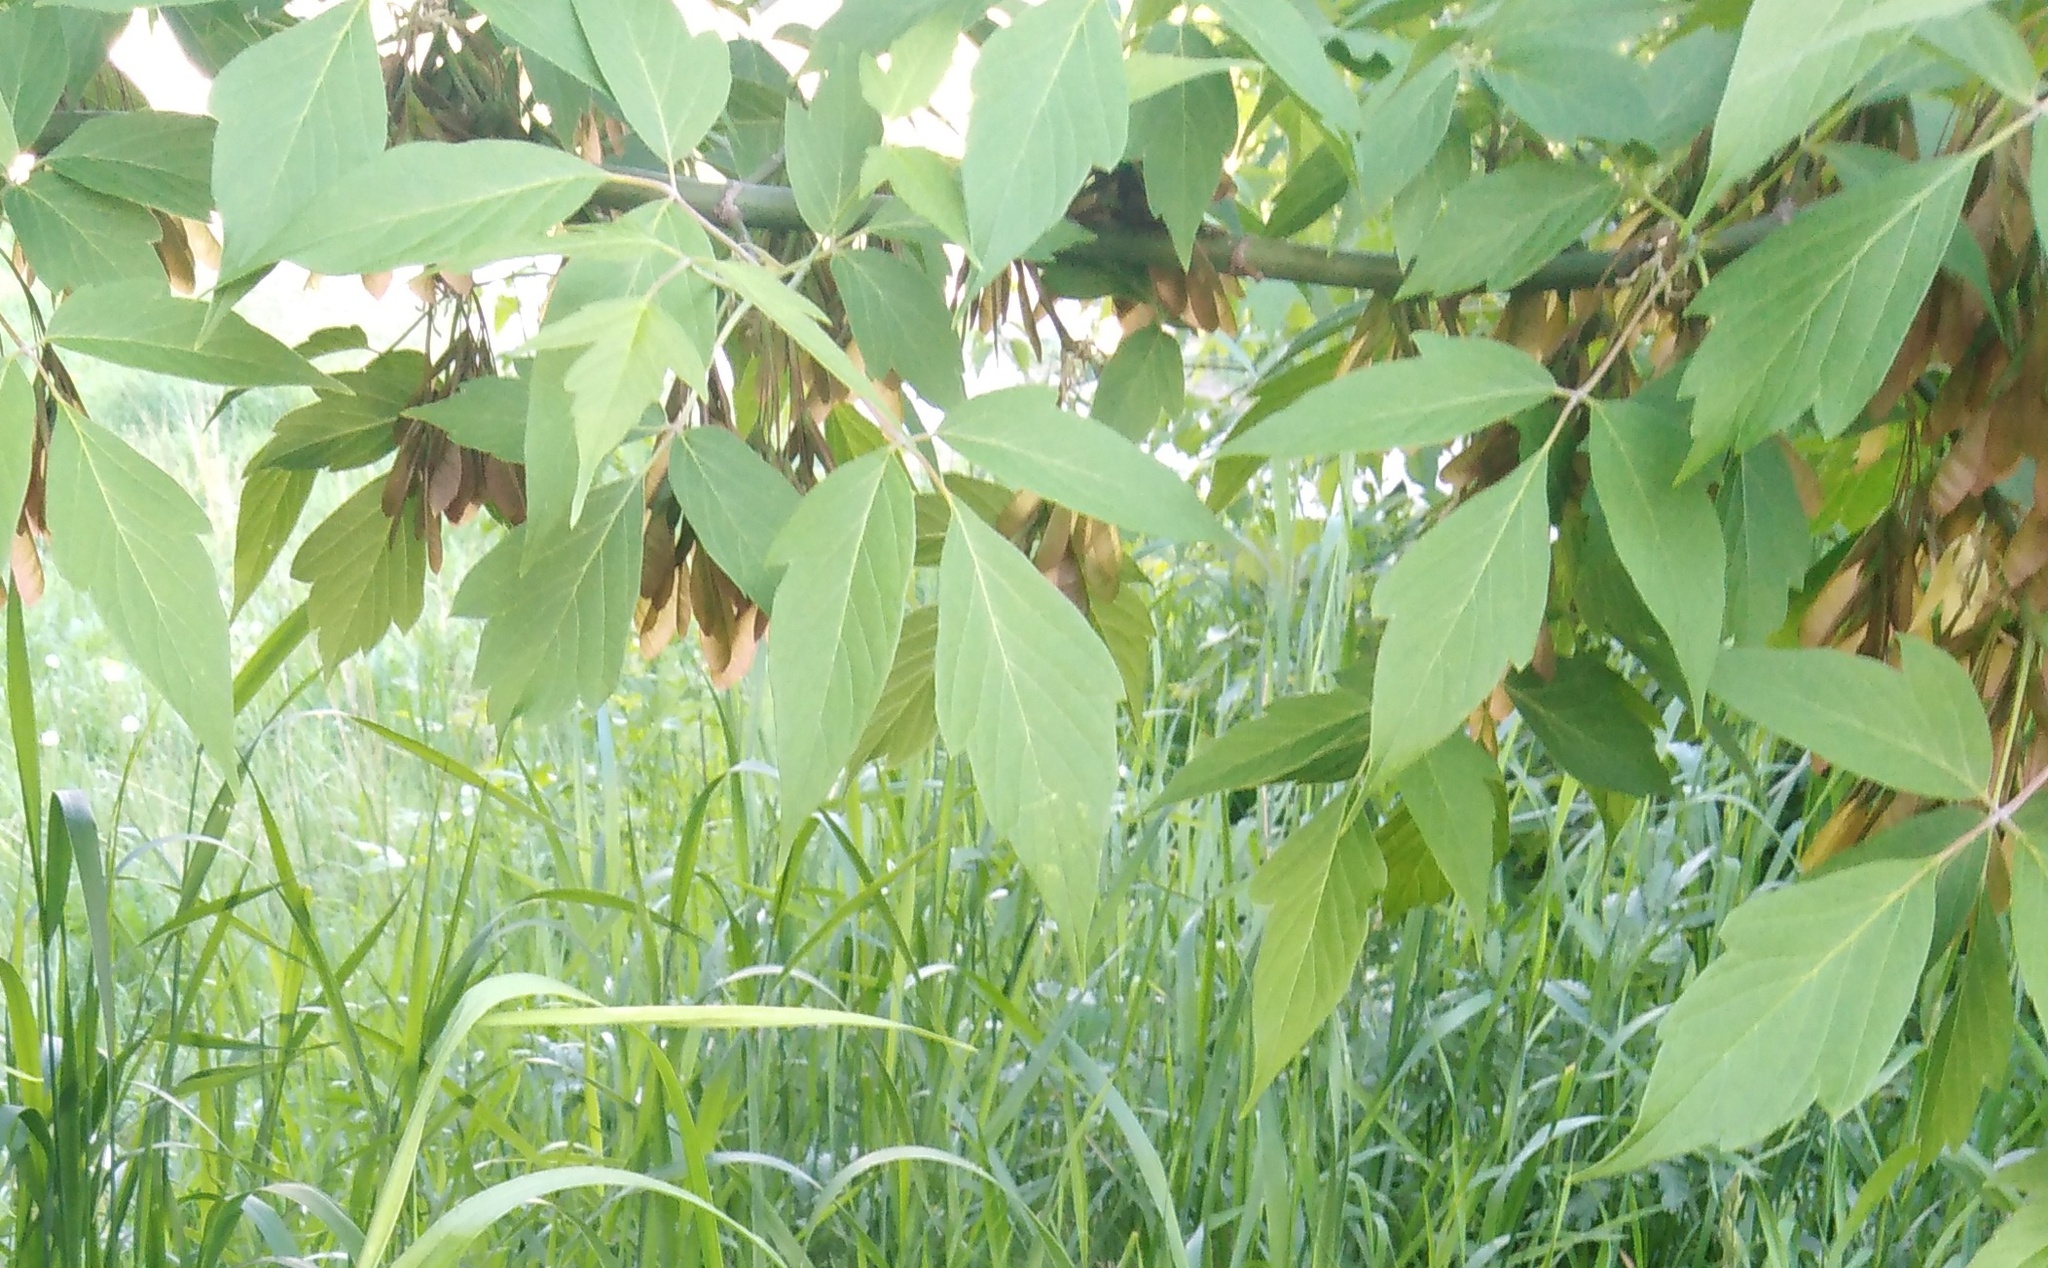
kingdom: Plantae
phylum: Tracheophyta
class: Magnoliopsida
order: Sapindales
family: Sapindaceae
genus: Acer
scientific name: Acer negundo
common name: Ashleaf maple
